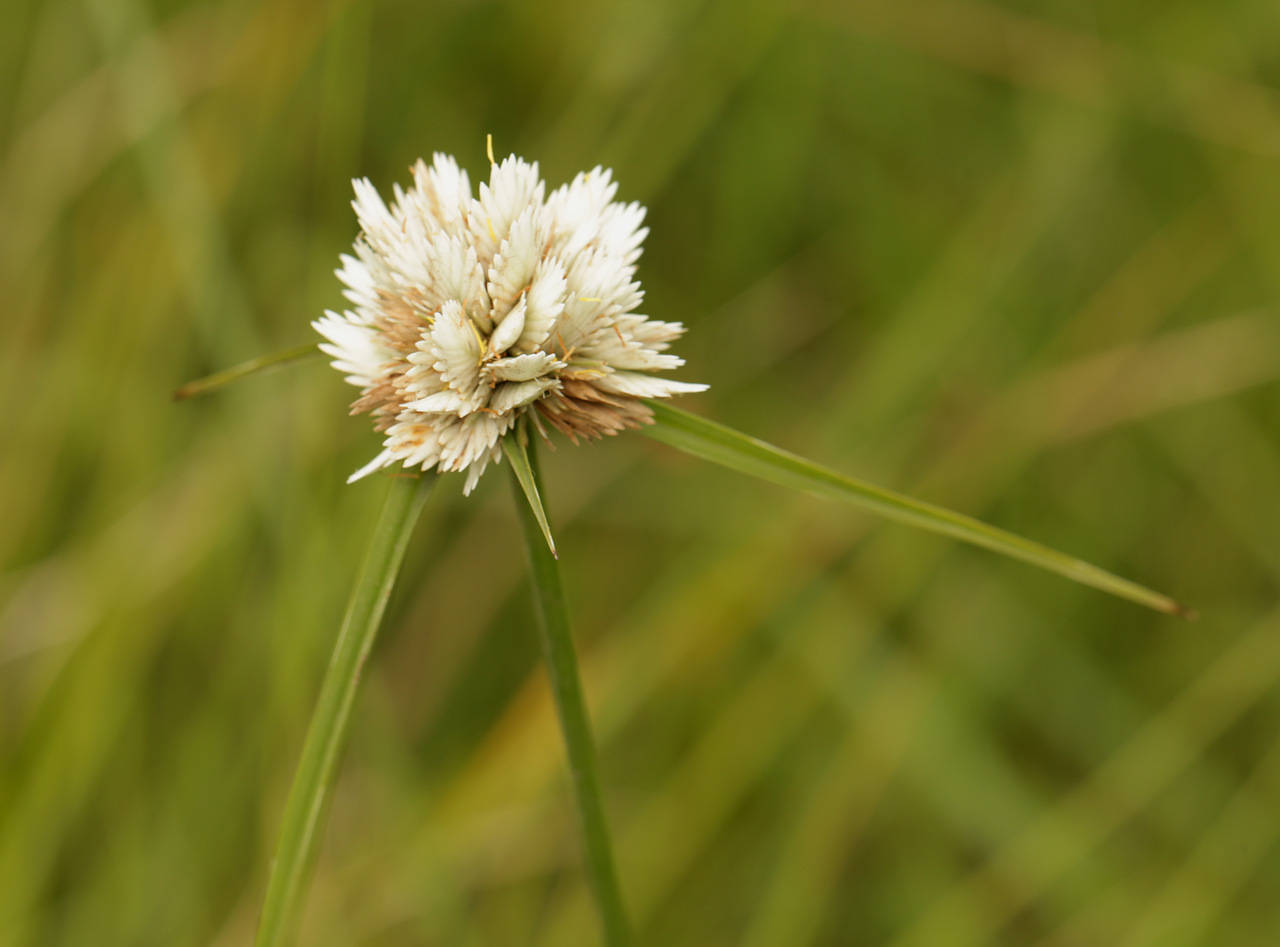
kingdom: Plantae
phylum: Tracheophyta
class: Liliopsida
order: Poales
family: Cyperaceae
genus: Cyperus
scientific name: Cyperus niveus
